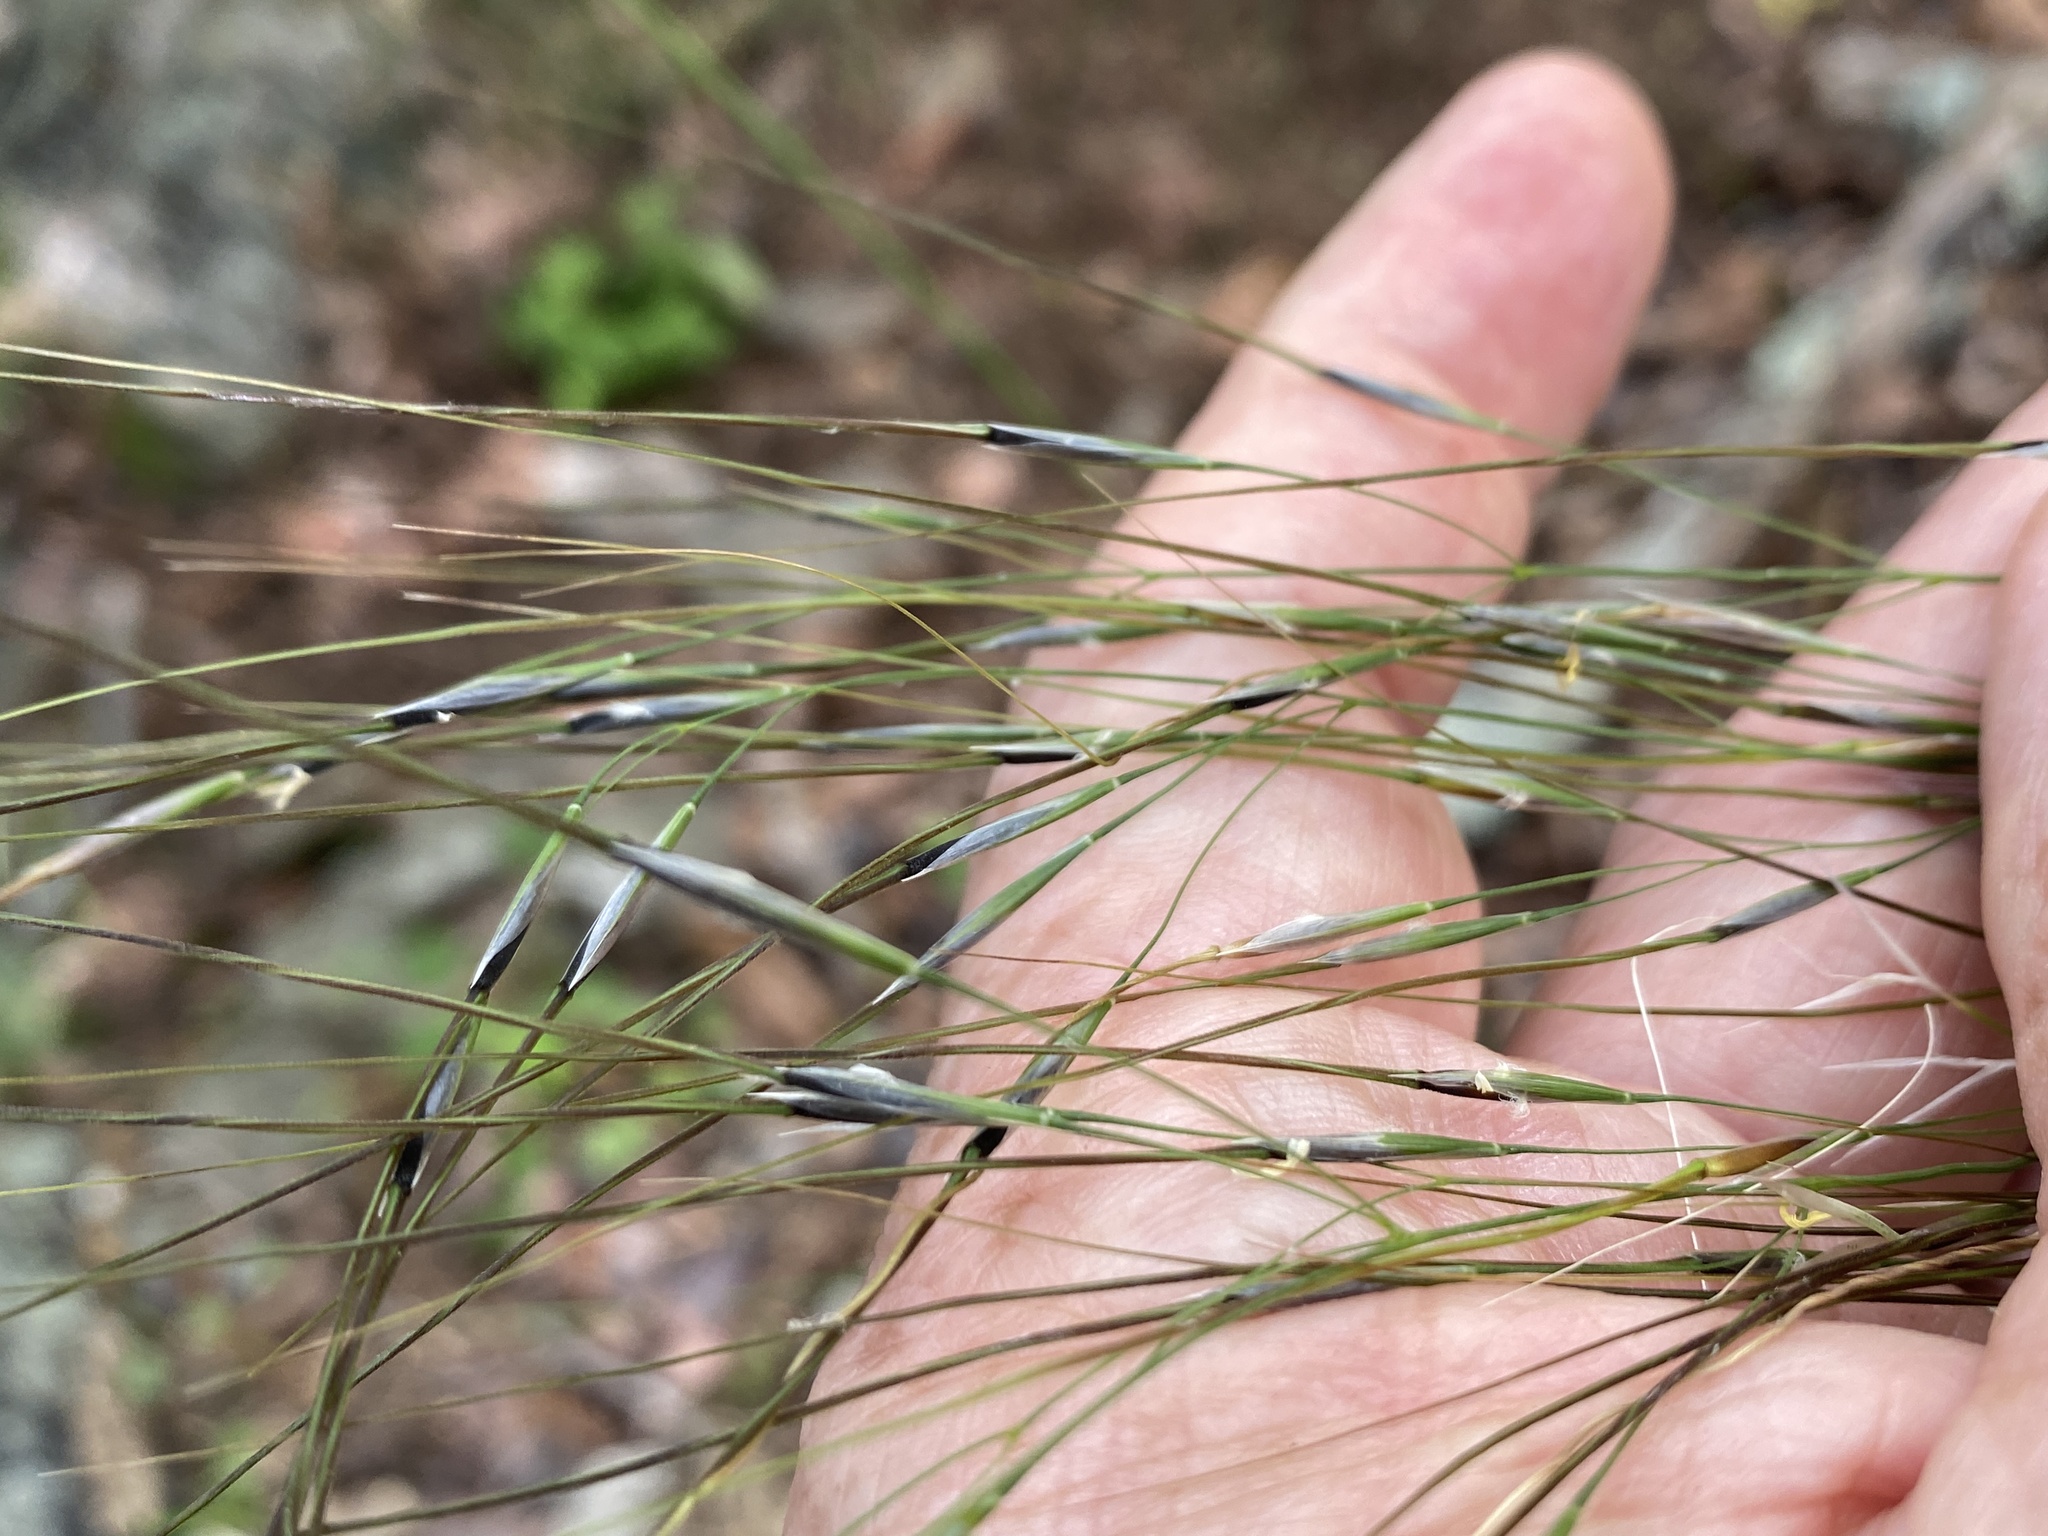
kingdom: Plantae
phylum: Tracheophyta
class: Liliopsida
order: Poales
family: Poaceae
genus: Piptochaetium
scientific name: Piptochaetium avenaceum
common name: Black bunchgrass
